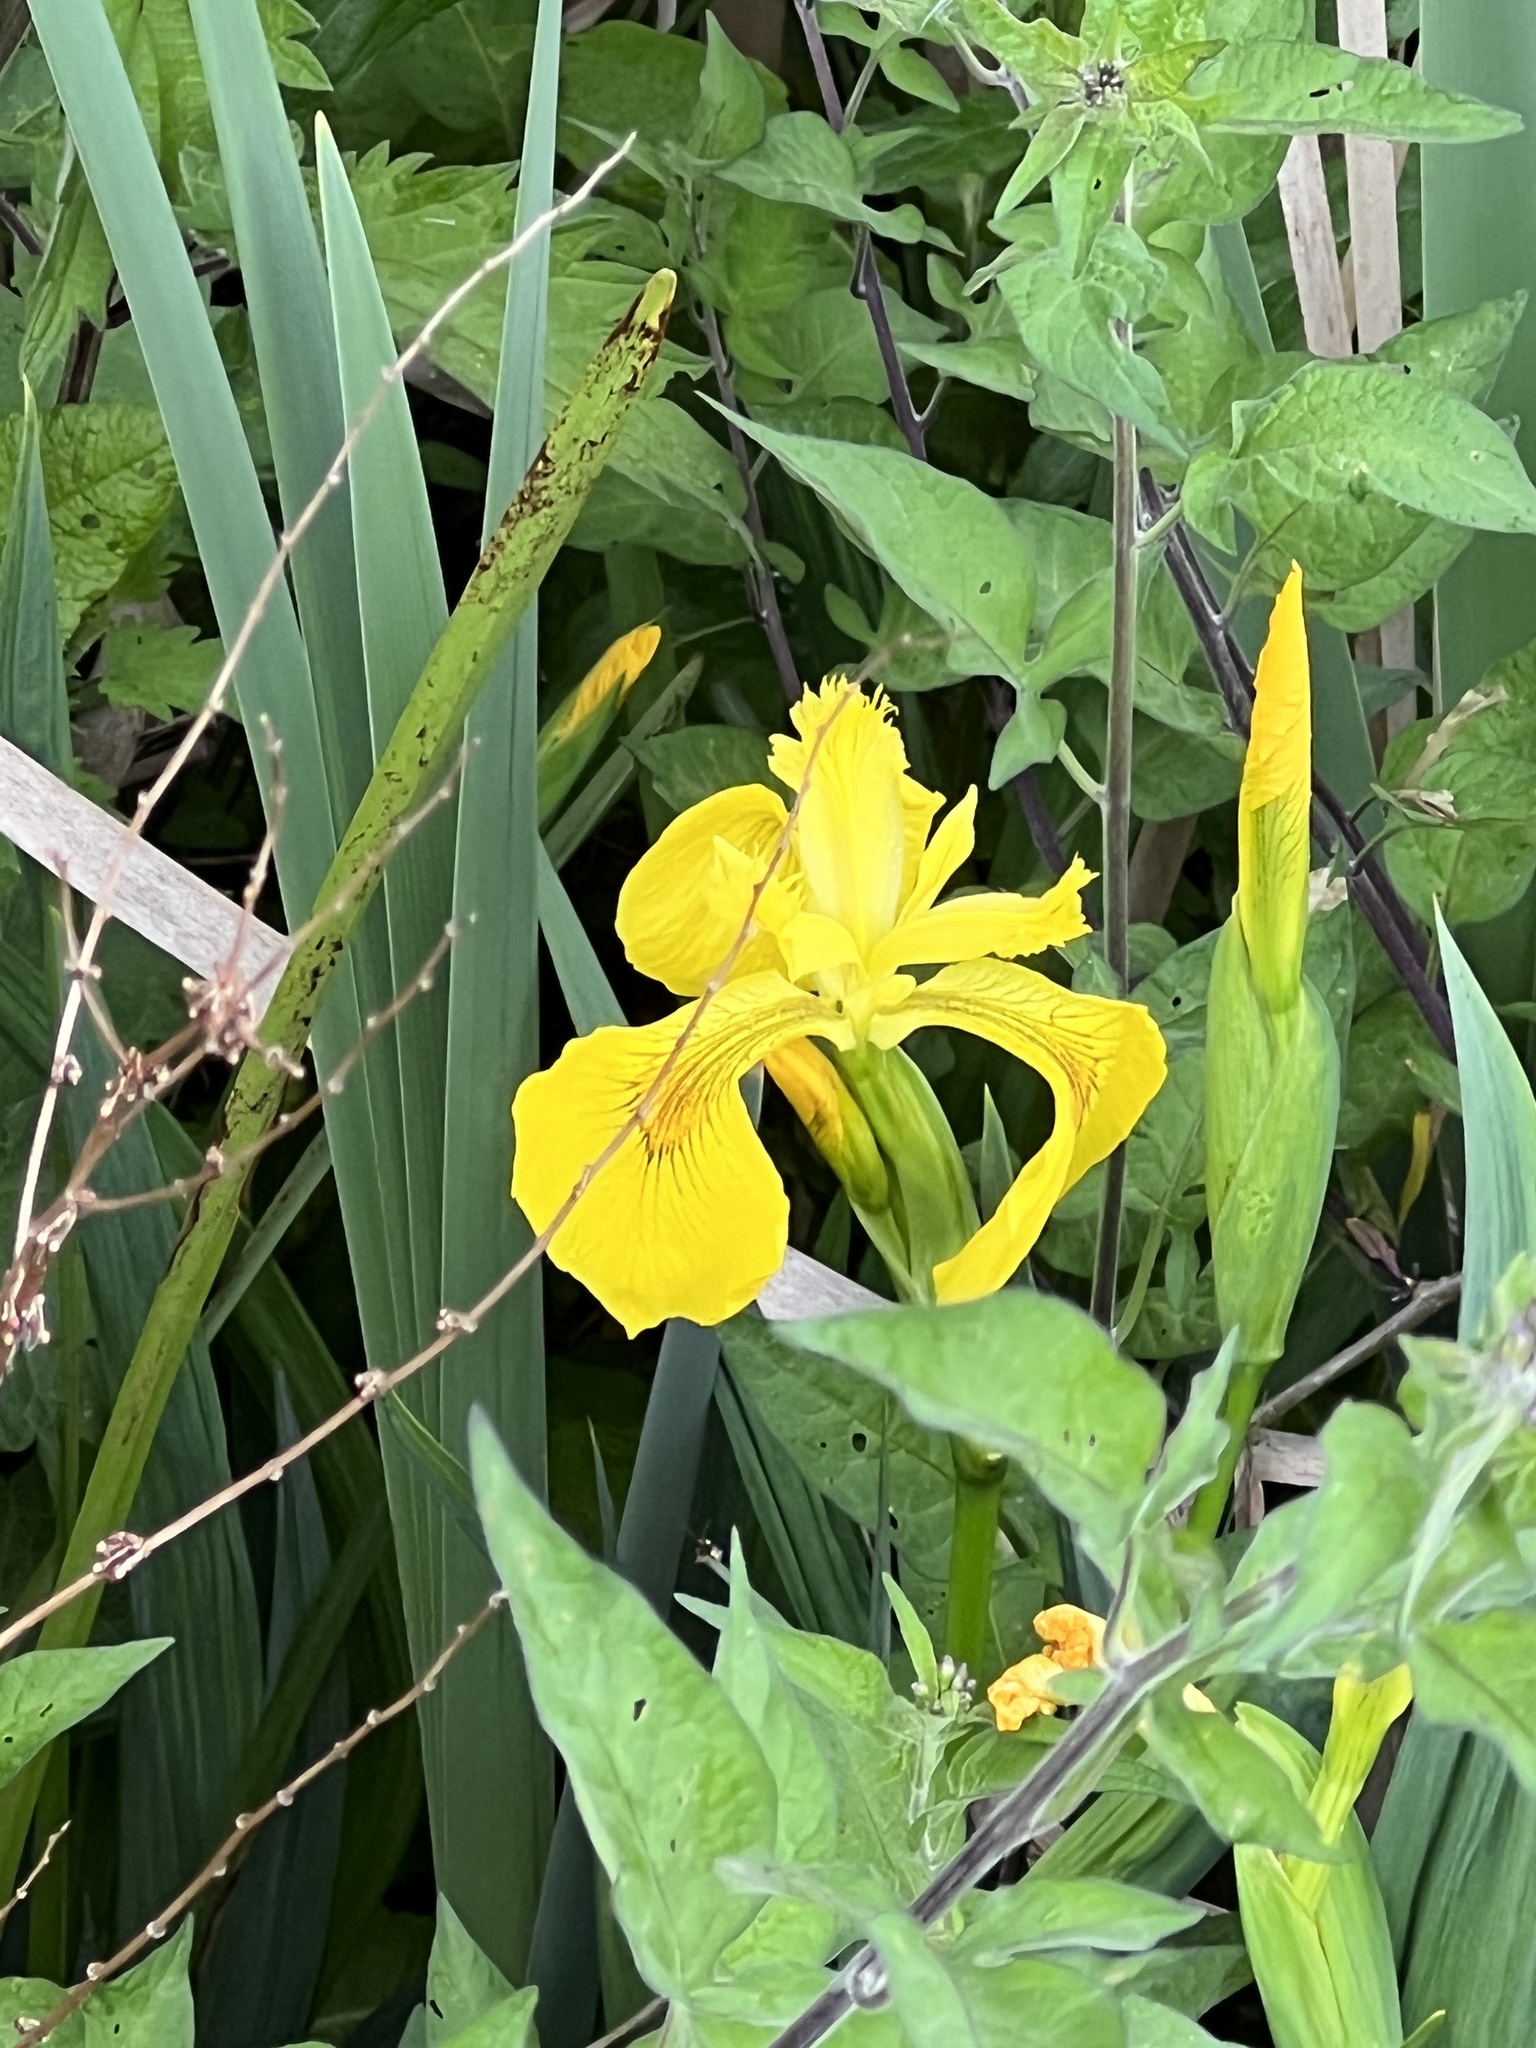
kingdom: Plantae
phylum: Tracheophyta
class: Liliopsida
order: Asparagales
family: Iridaceae
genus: Iris
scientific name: Iris pseudacorus
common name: Yellow flag
